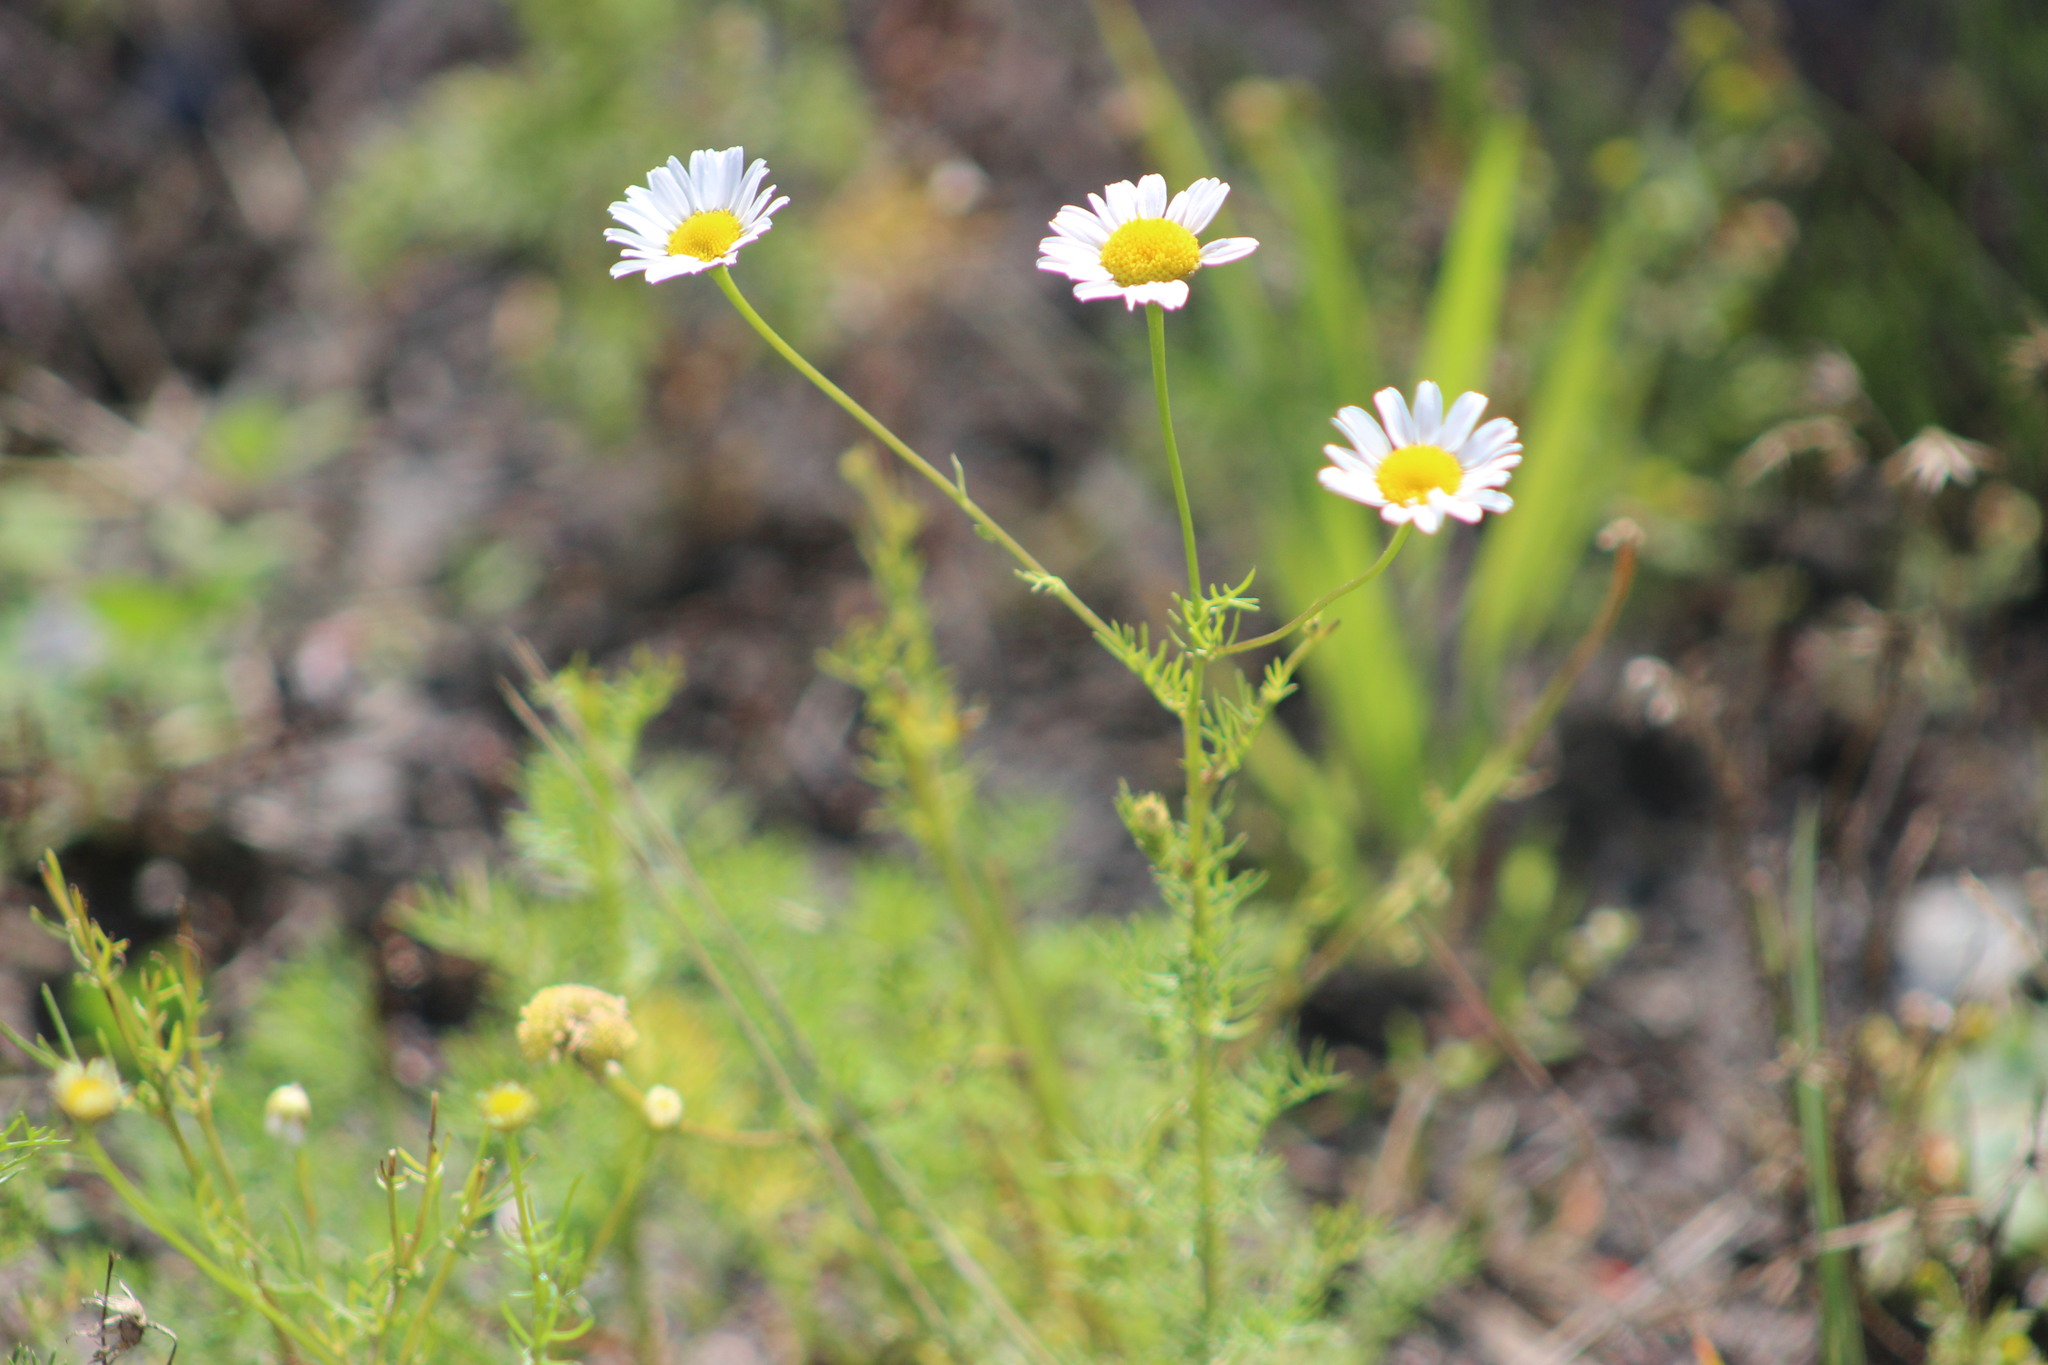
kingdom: Plantae
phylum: Tracheophyta
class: Magnoliopsida
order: Asterales
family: Asteraceae
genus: Tripleurospermum
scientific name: Tripleurospermum inodorum
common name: Scentless mayweed
